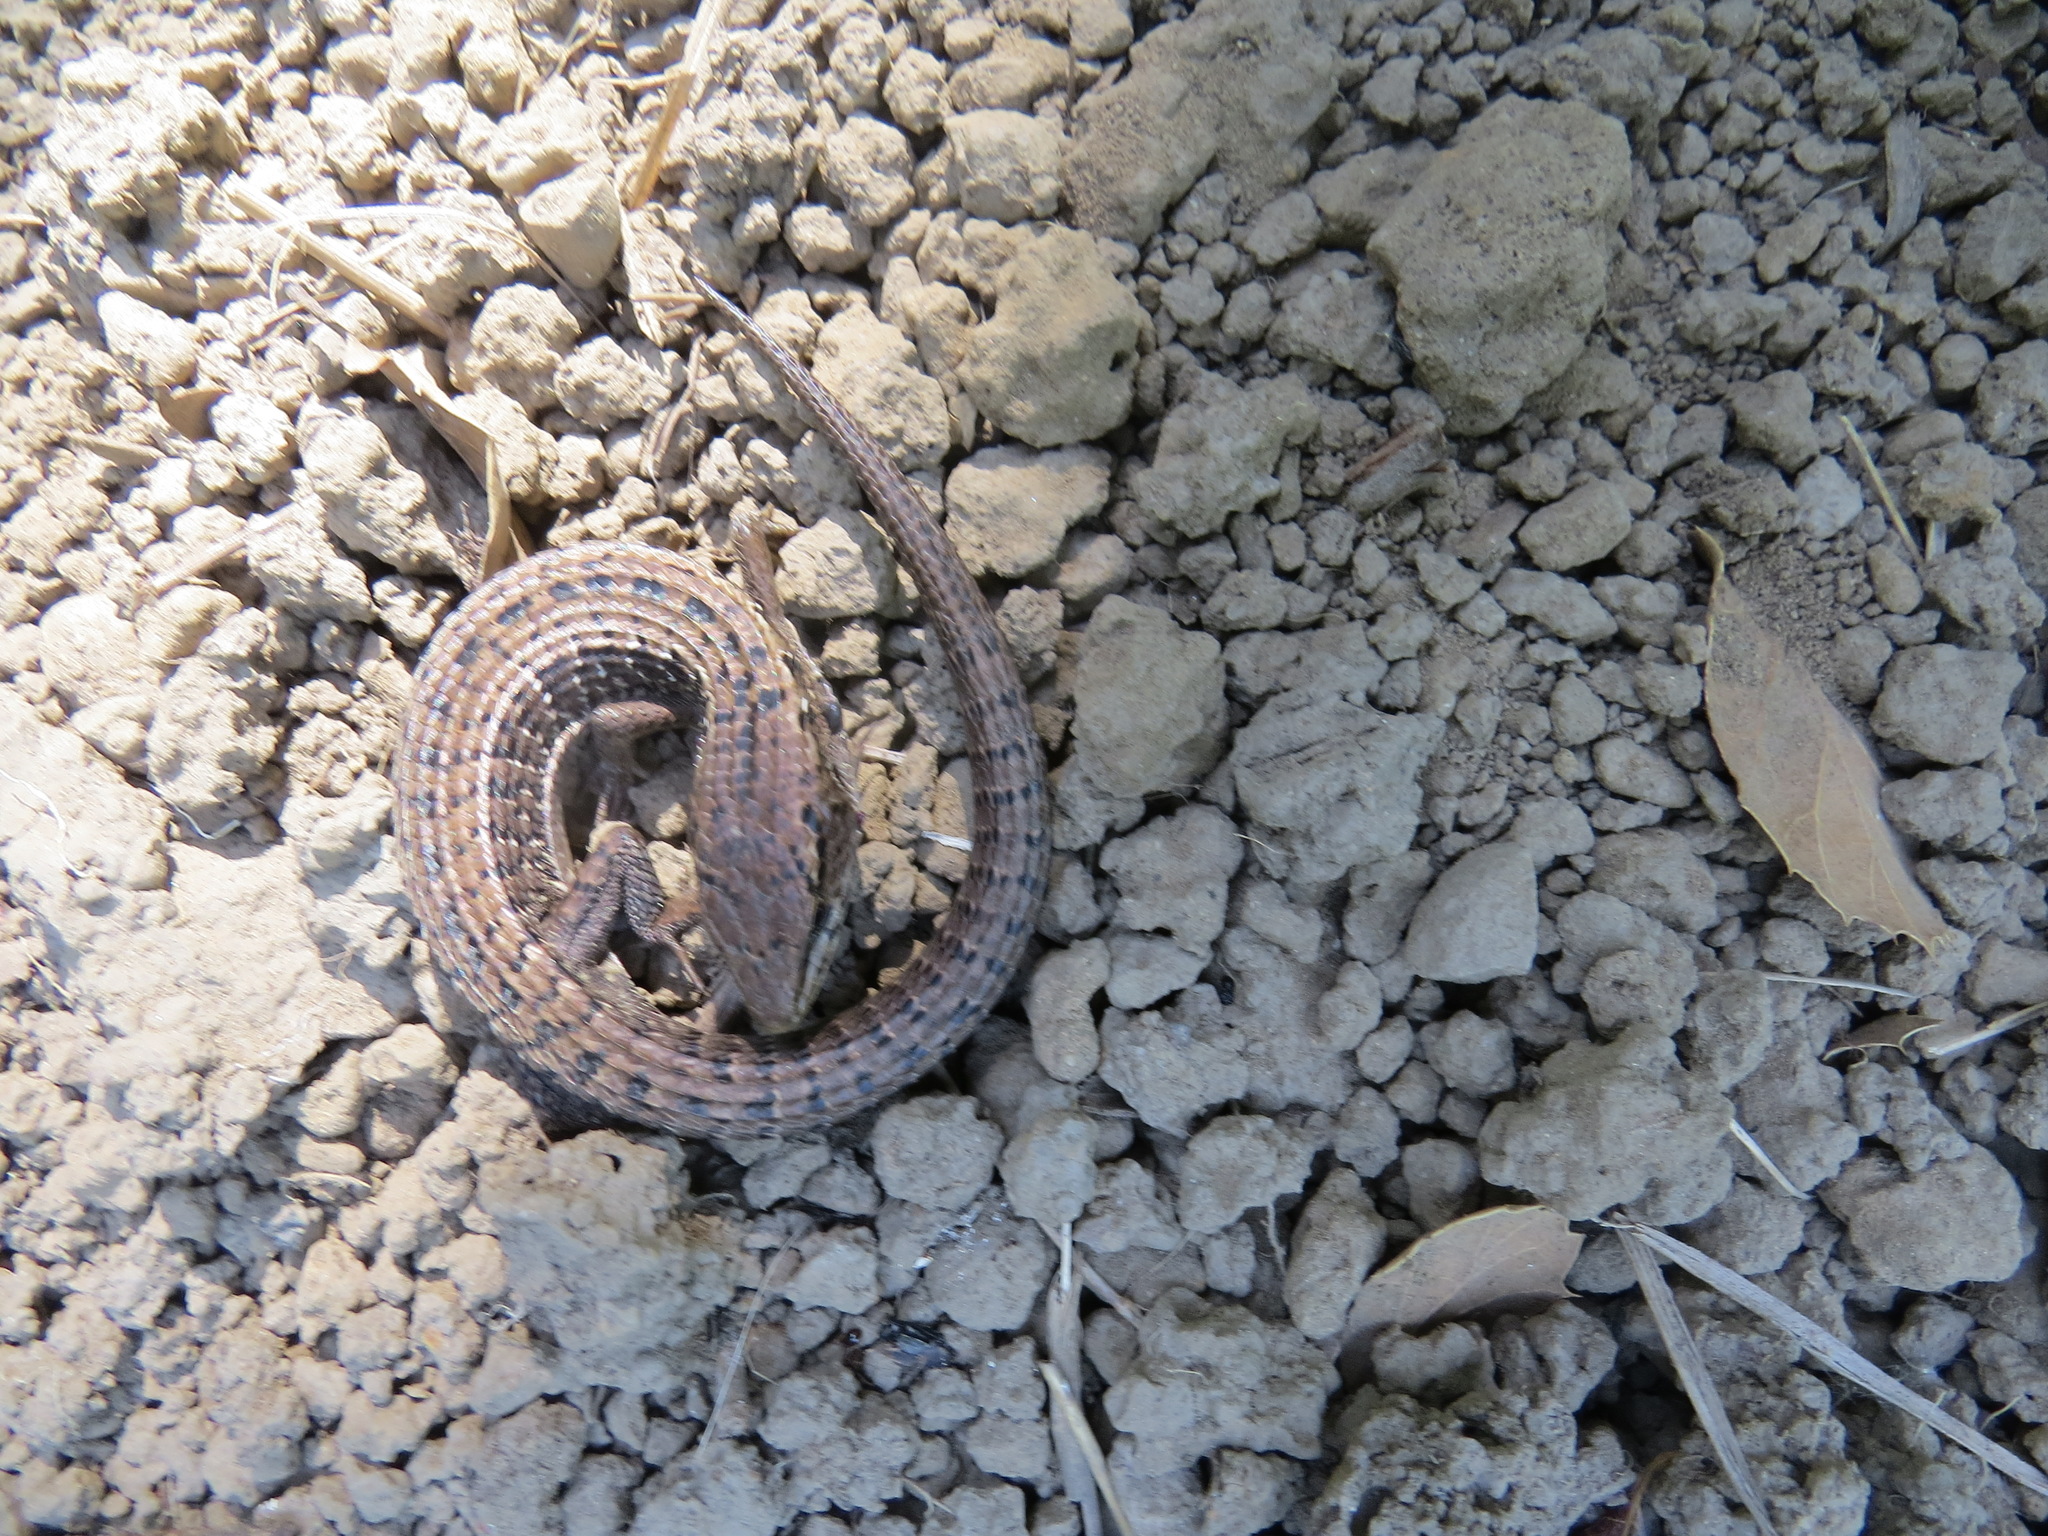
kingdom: Animalia
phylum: Chordata
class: Squamata
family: Anguidae
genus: Elgaria
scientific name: Elgaria coerulea
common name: Northern alligator lizard
